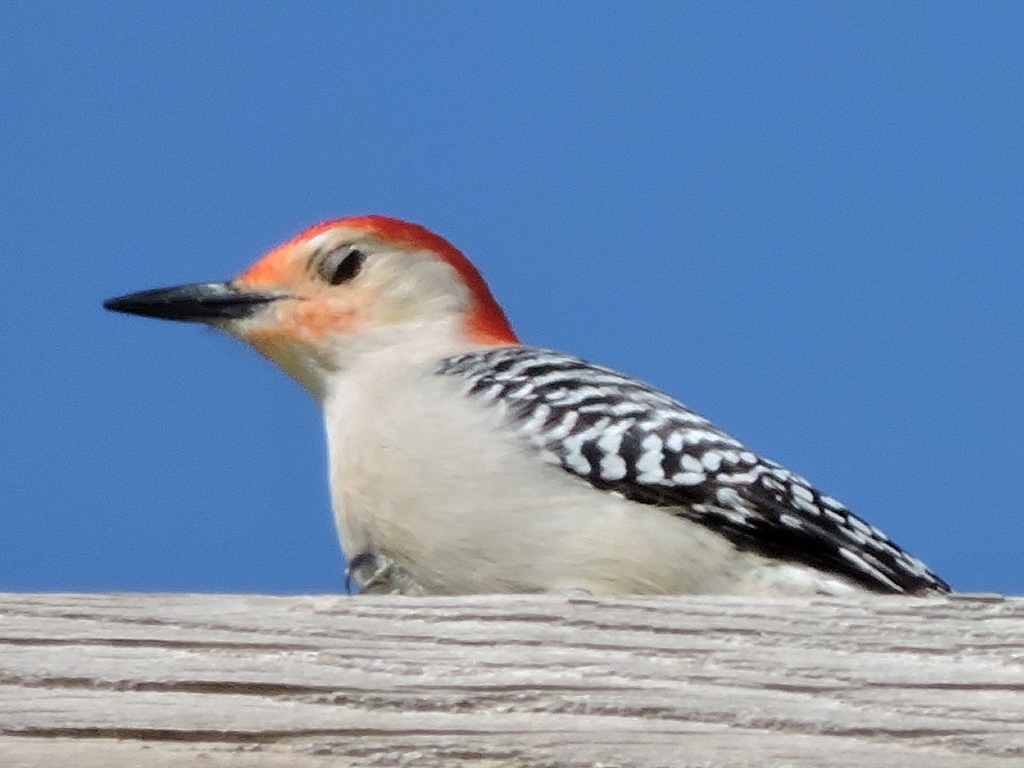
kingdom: Animalia
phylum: Chordata
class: Aves
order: Piciformes
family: Picidae
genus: Melanerpes
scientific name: Melanerpes carolinus
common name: Red-bellied woodpecker
